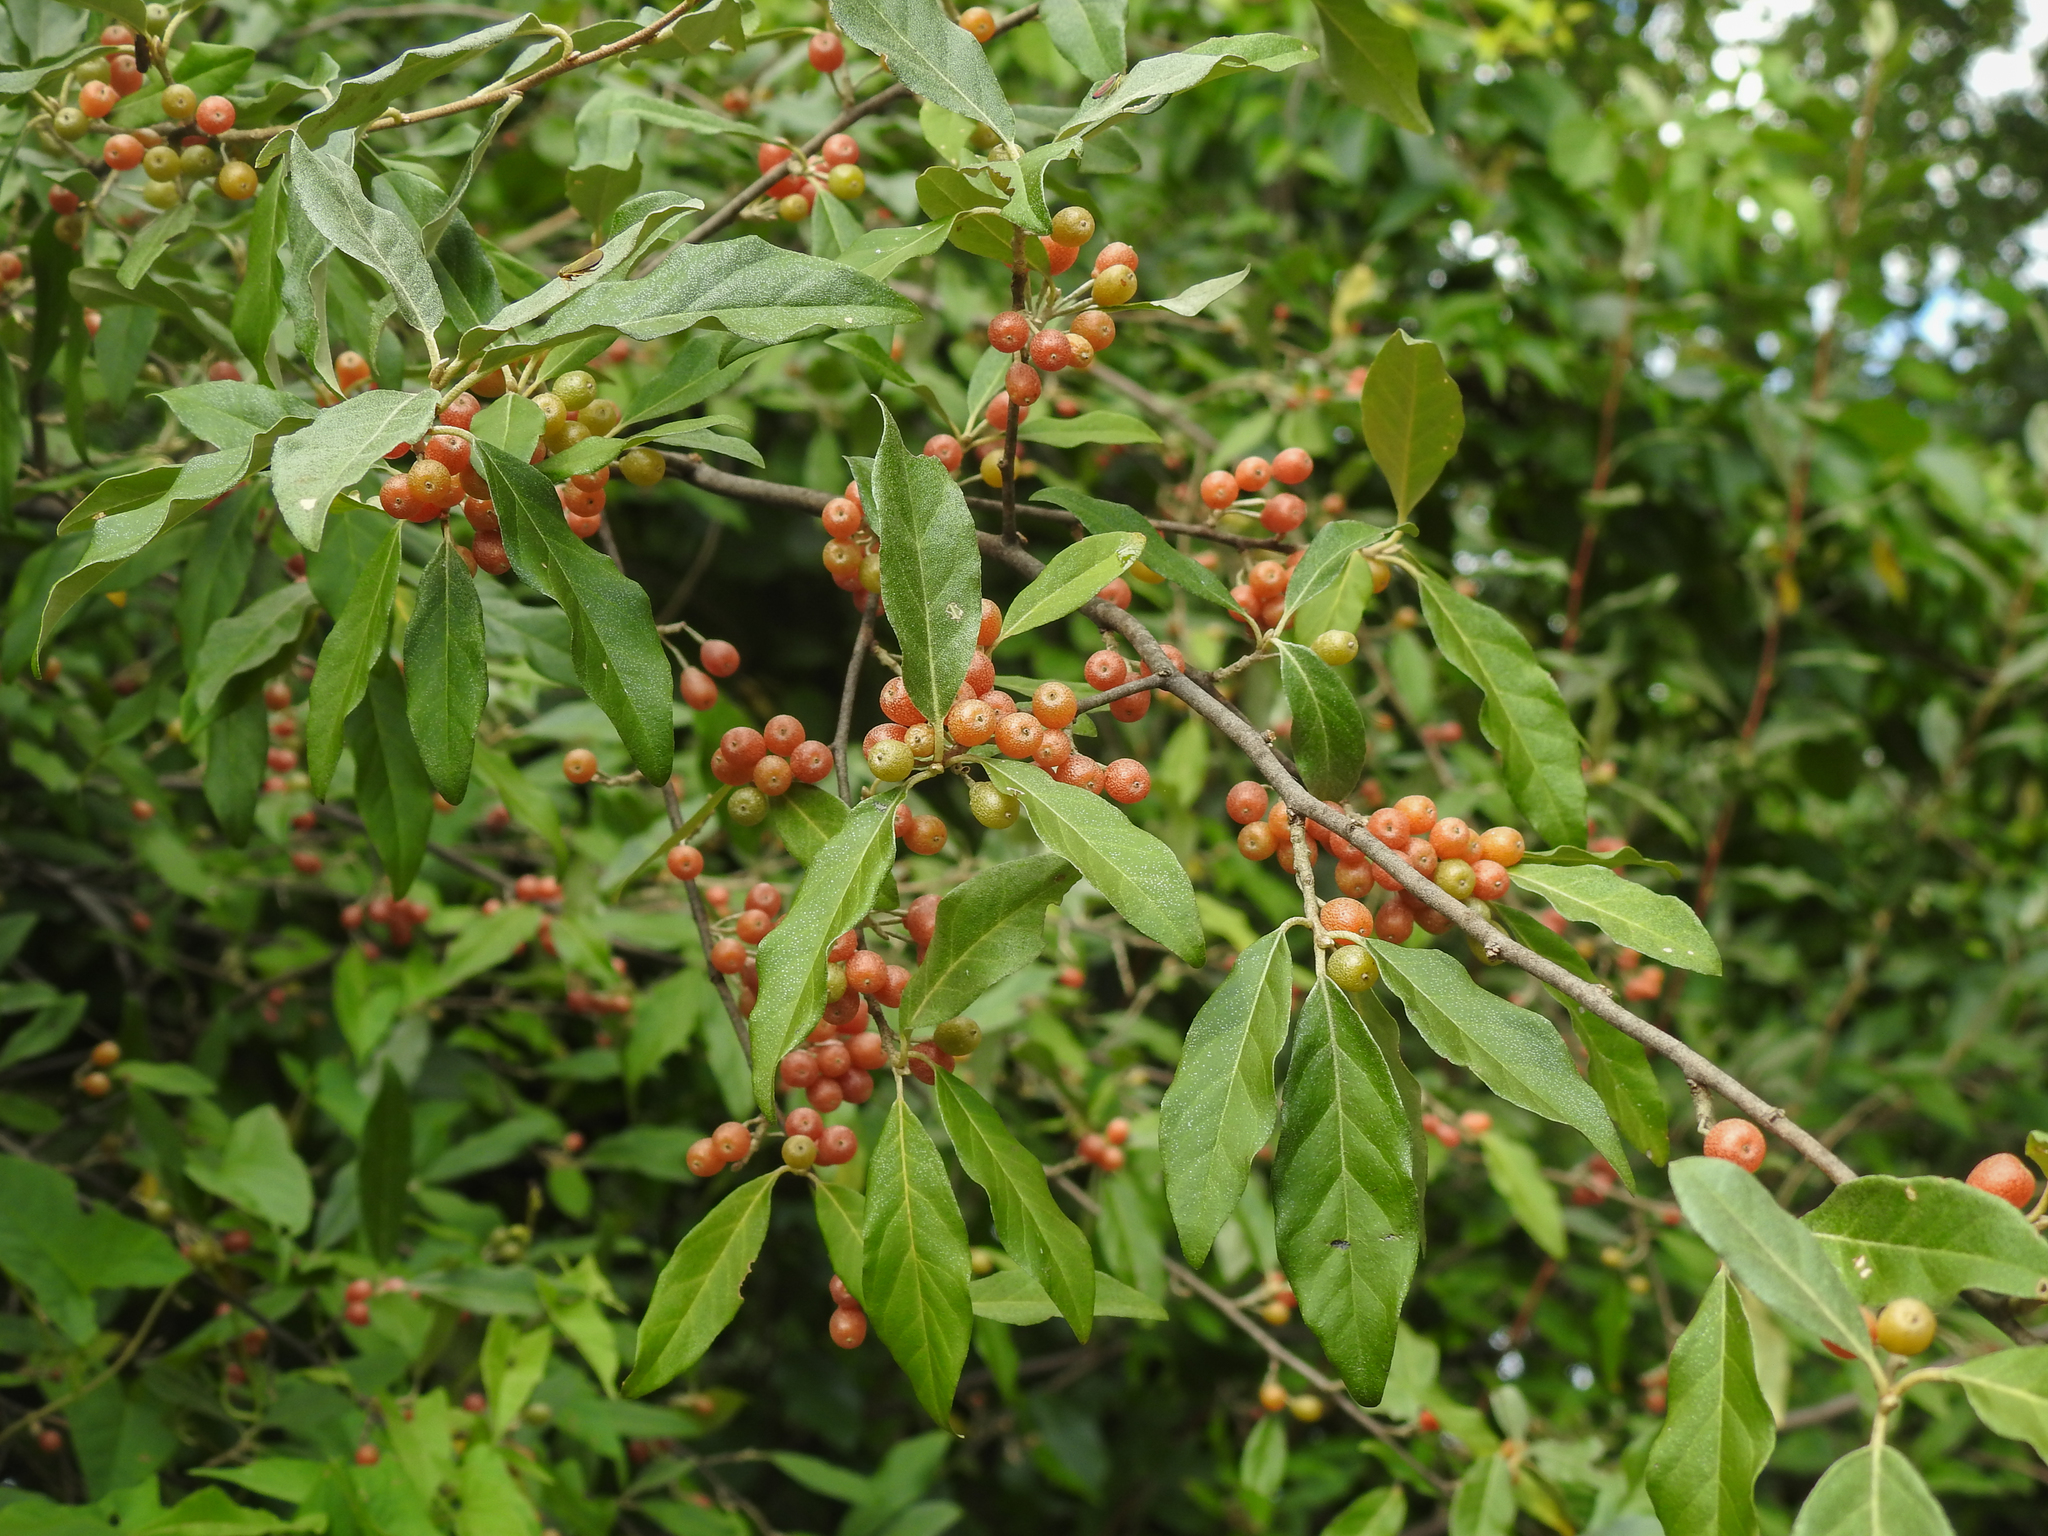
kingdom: Plantae
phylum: Tracheophyta
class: Magnoliopsida
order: Rosales
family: Elaeagnaceae
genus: Elaeagnus
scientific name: Elaeagnus umbellata
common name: Autumn olive
